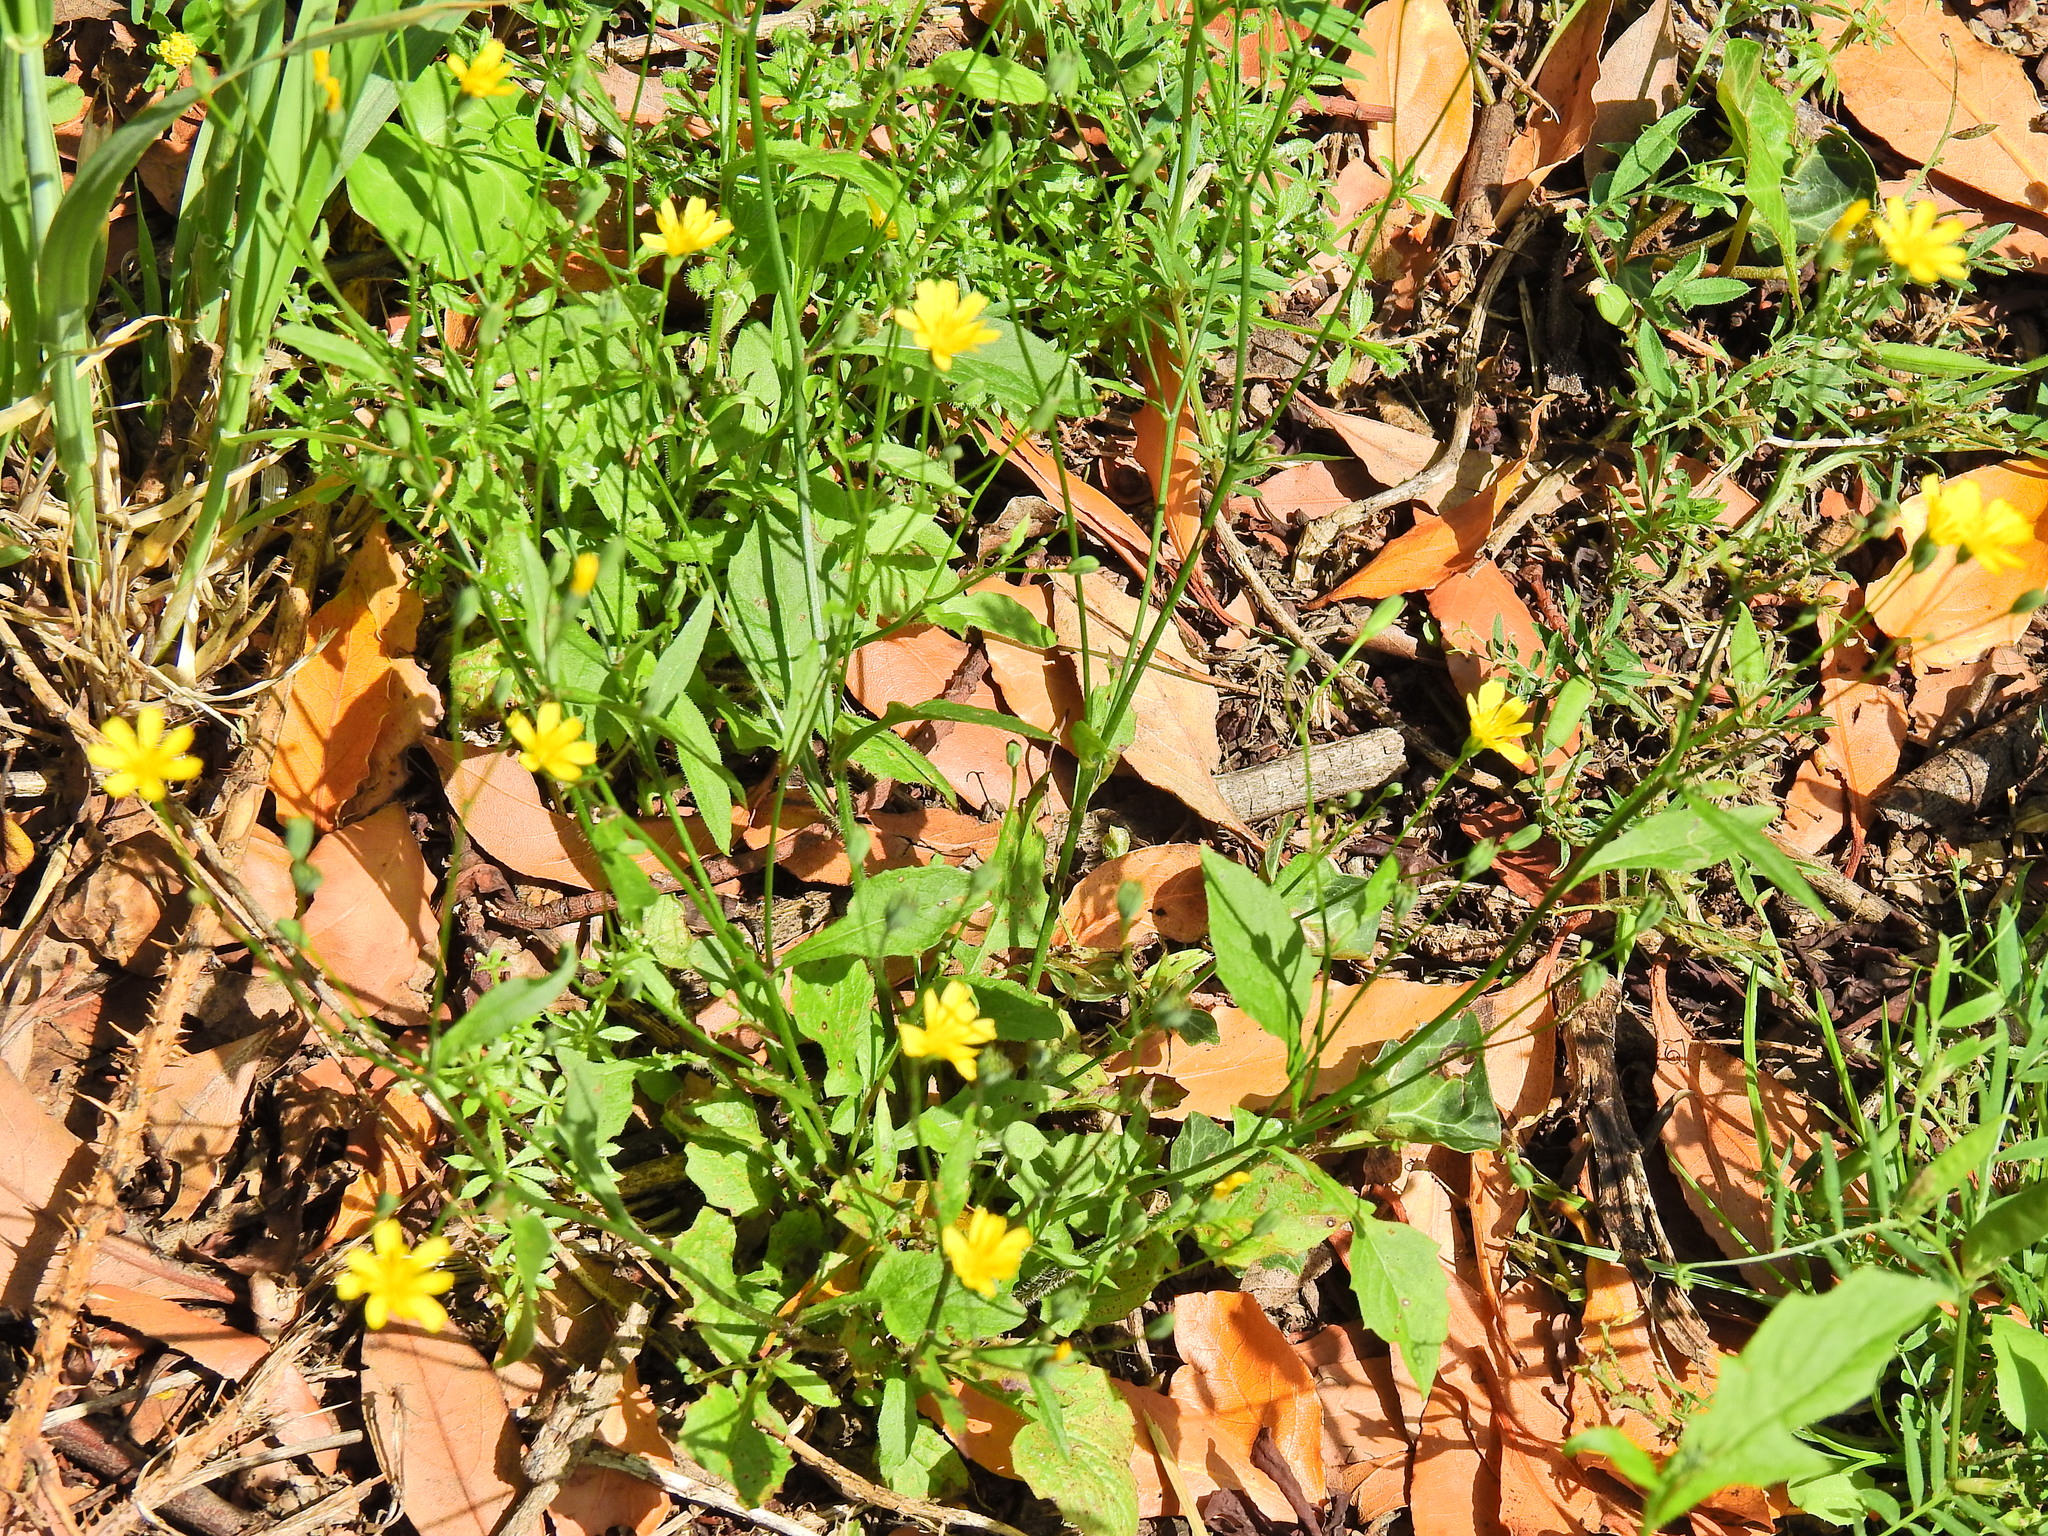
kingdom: Plantae
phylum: Tracheophyta
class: Magnoliopsida
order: Asterales
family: Asteraceae
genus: Mycelis
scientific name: Mycelis muralis
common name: Wall lettuce
